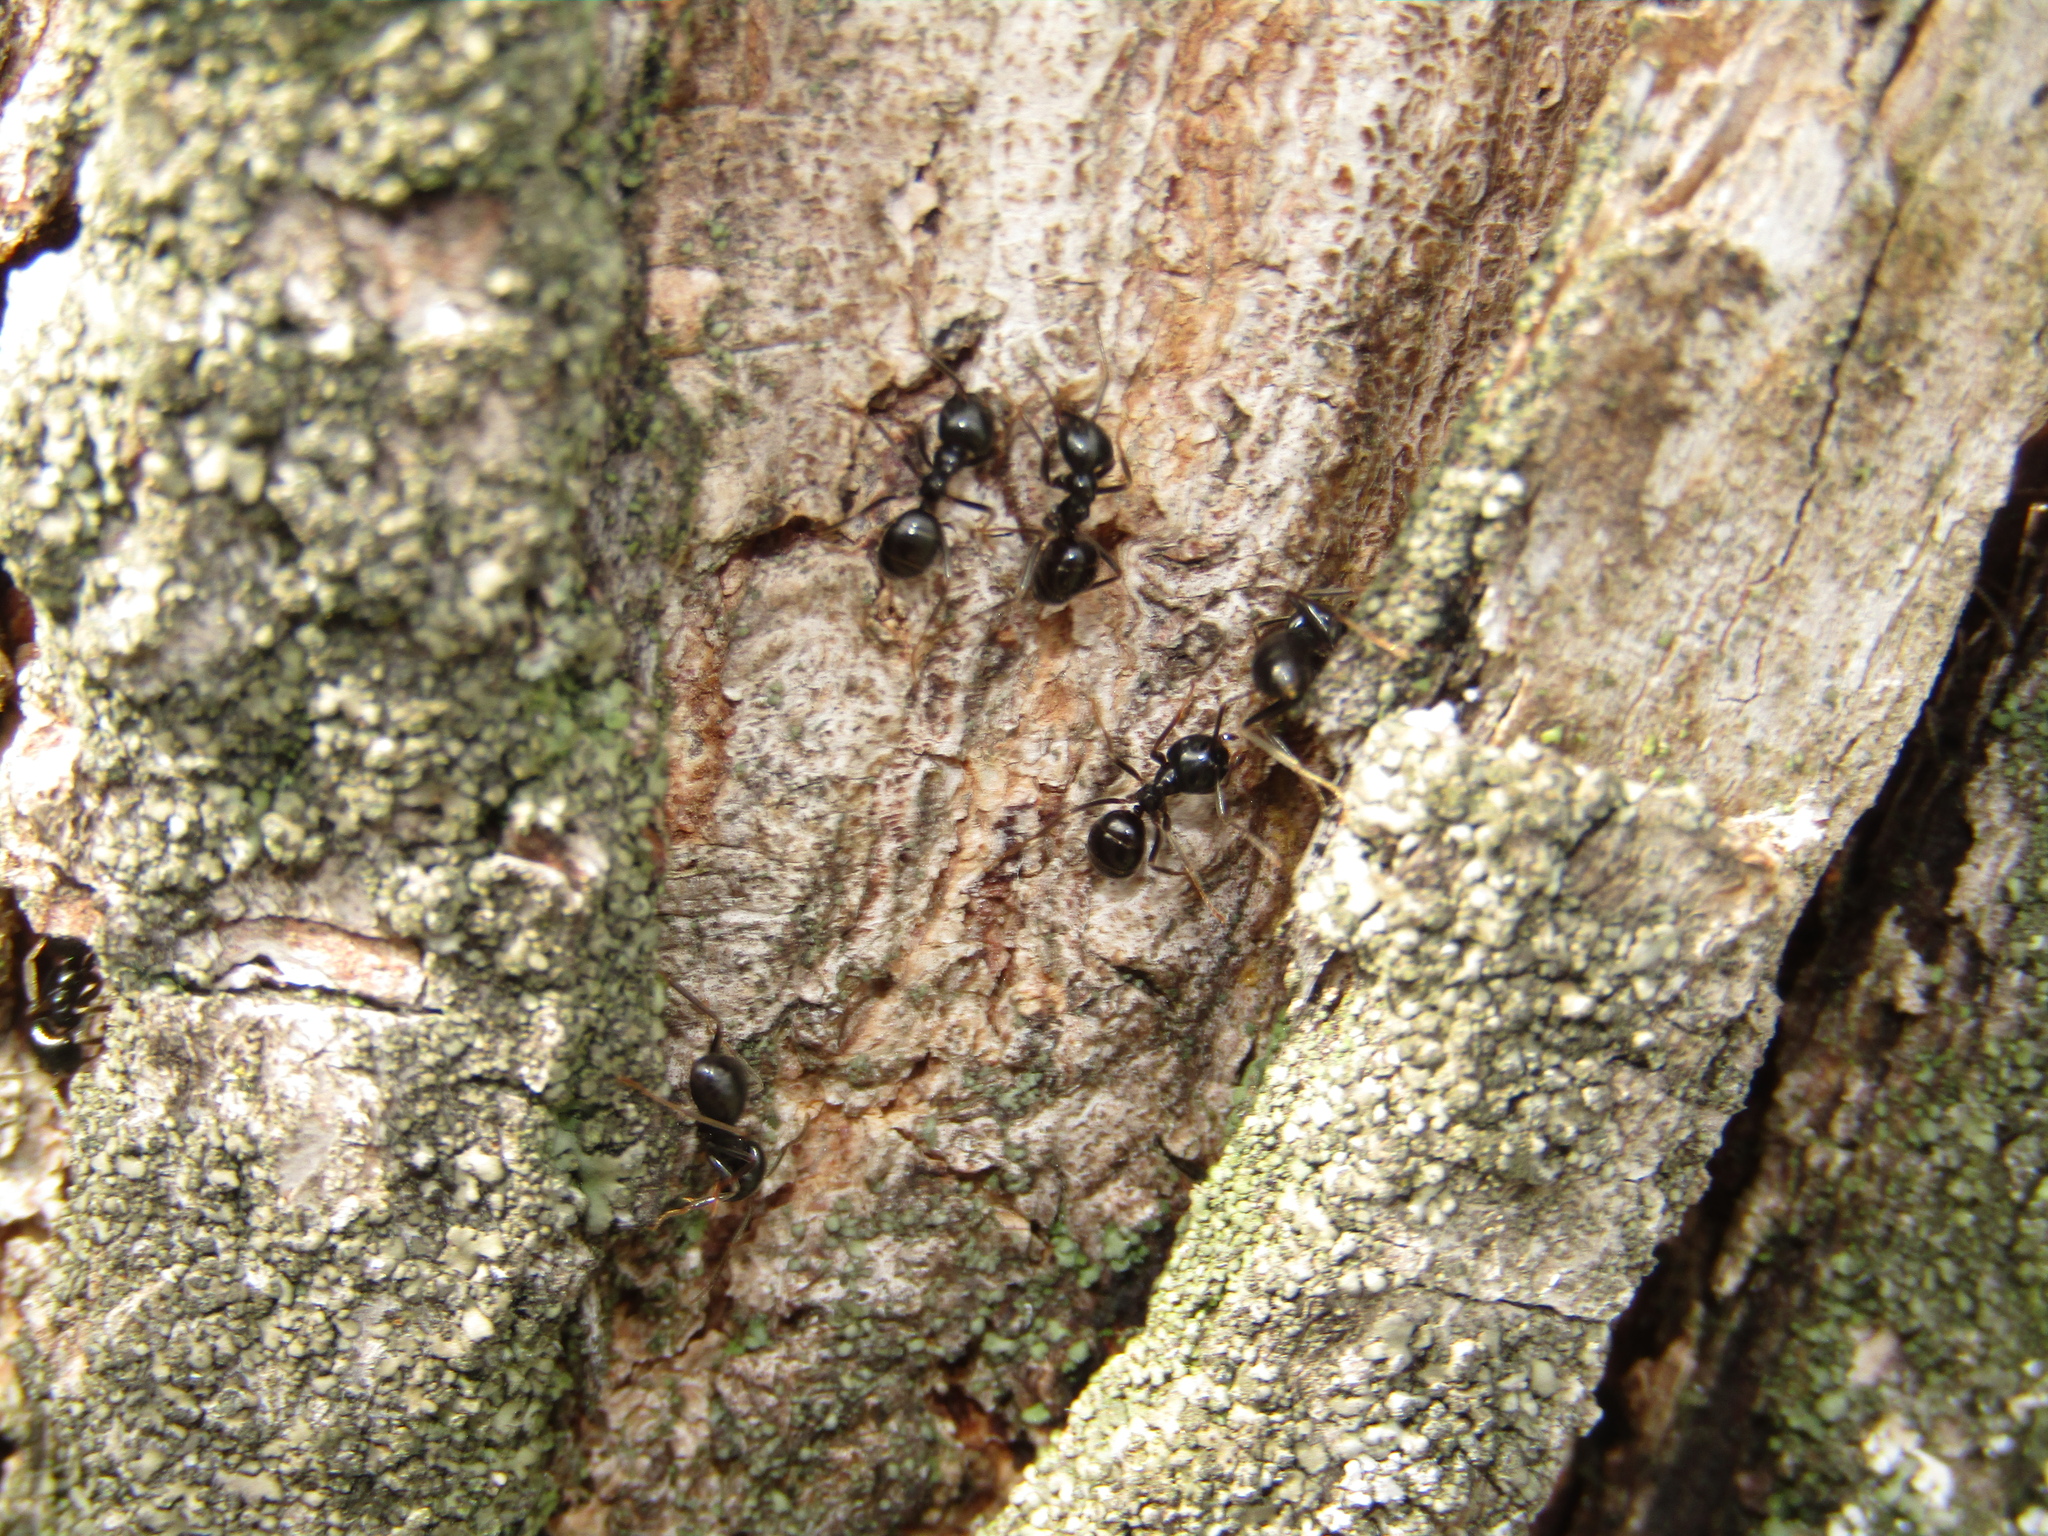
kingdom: Animalia
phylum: Arthropoda
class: Insecta
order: Hymenoptera
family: Formicidae
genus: Lasius
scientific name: Lasius fuliginosus
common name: Jet ant
